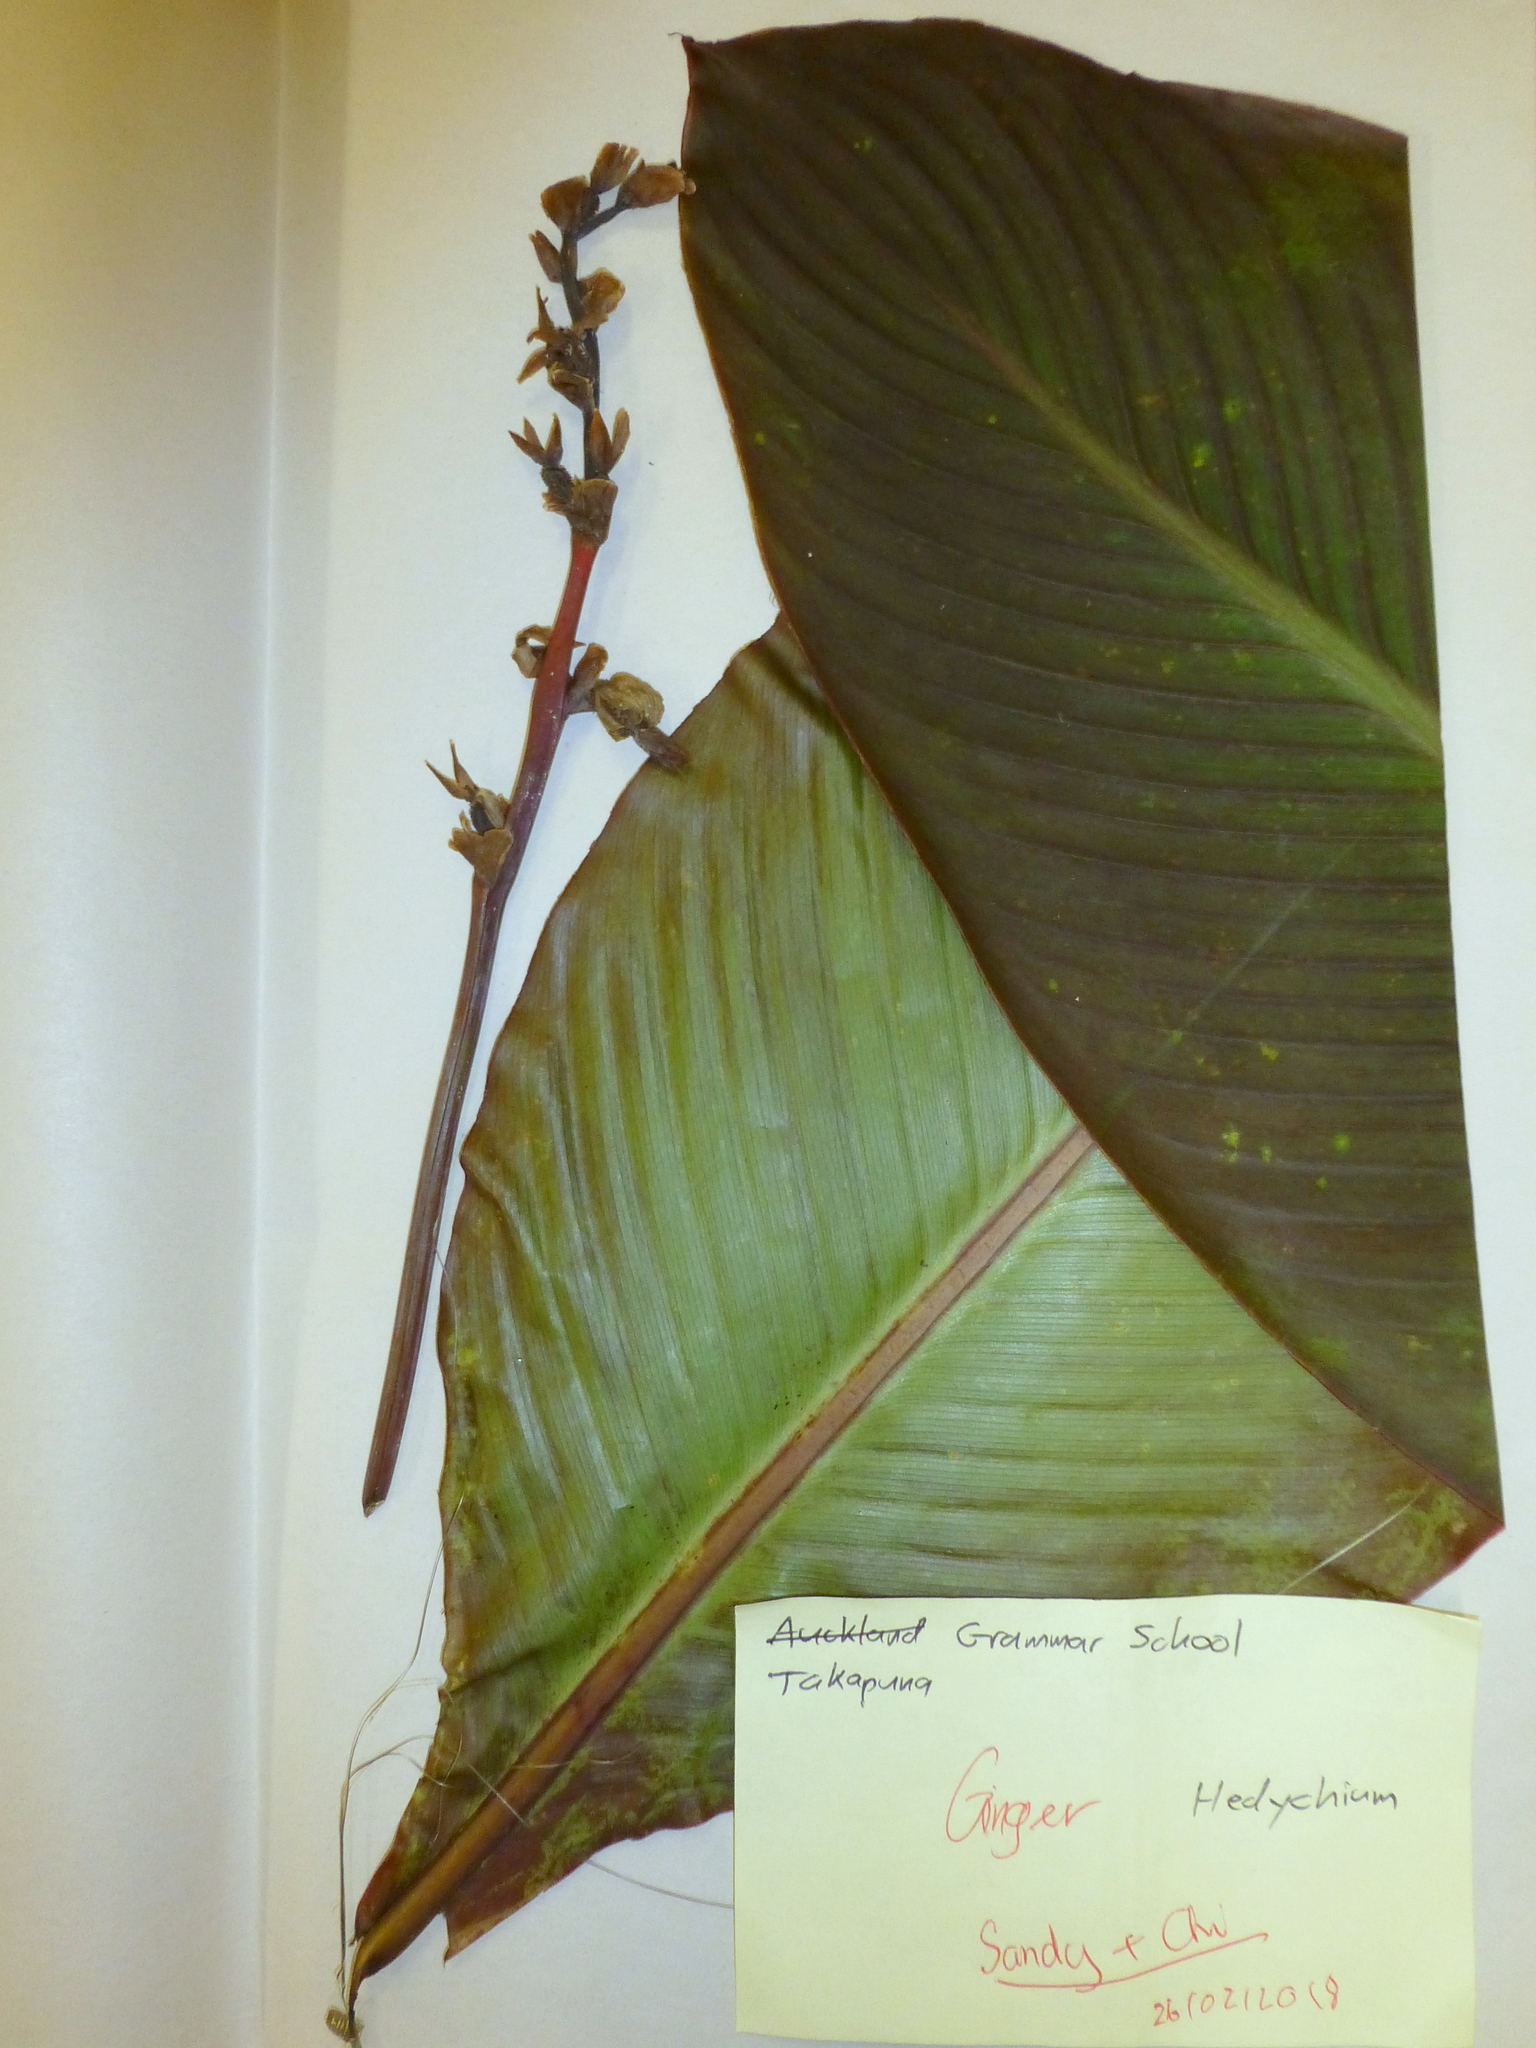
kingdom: Plantae
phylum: Tracheophyta
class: Liliopsida
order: Zingiberales
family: Cannaceae
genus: Canna
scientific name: Canna indica
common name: Indian shot
